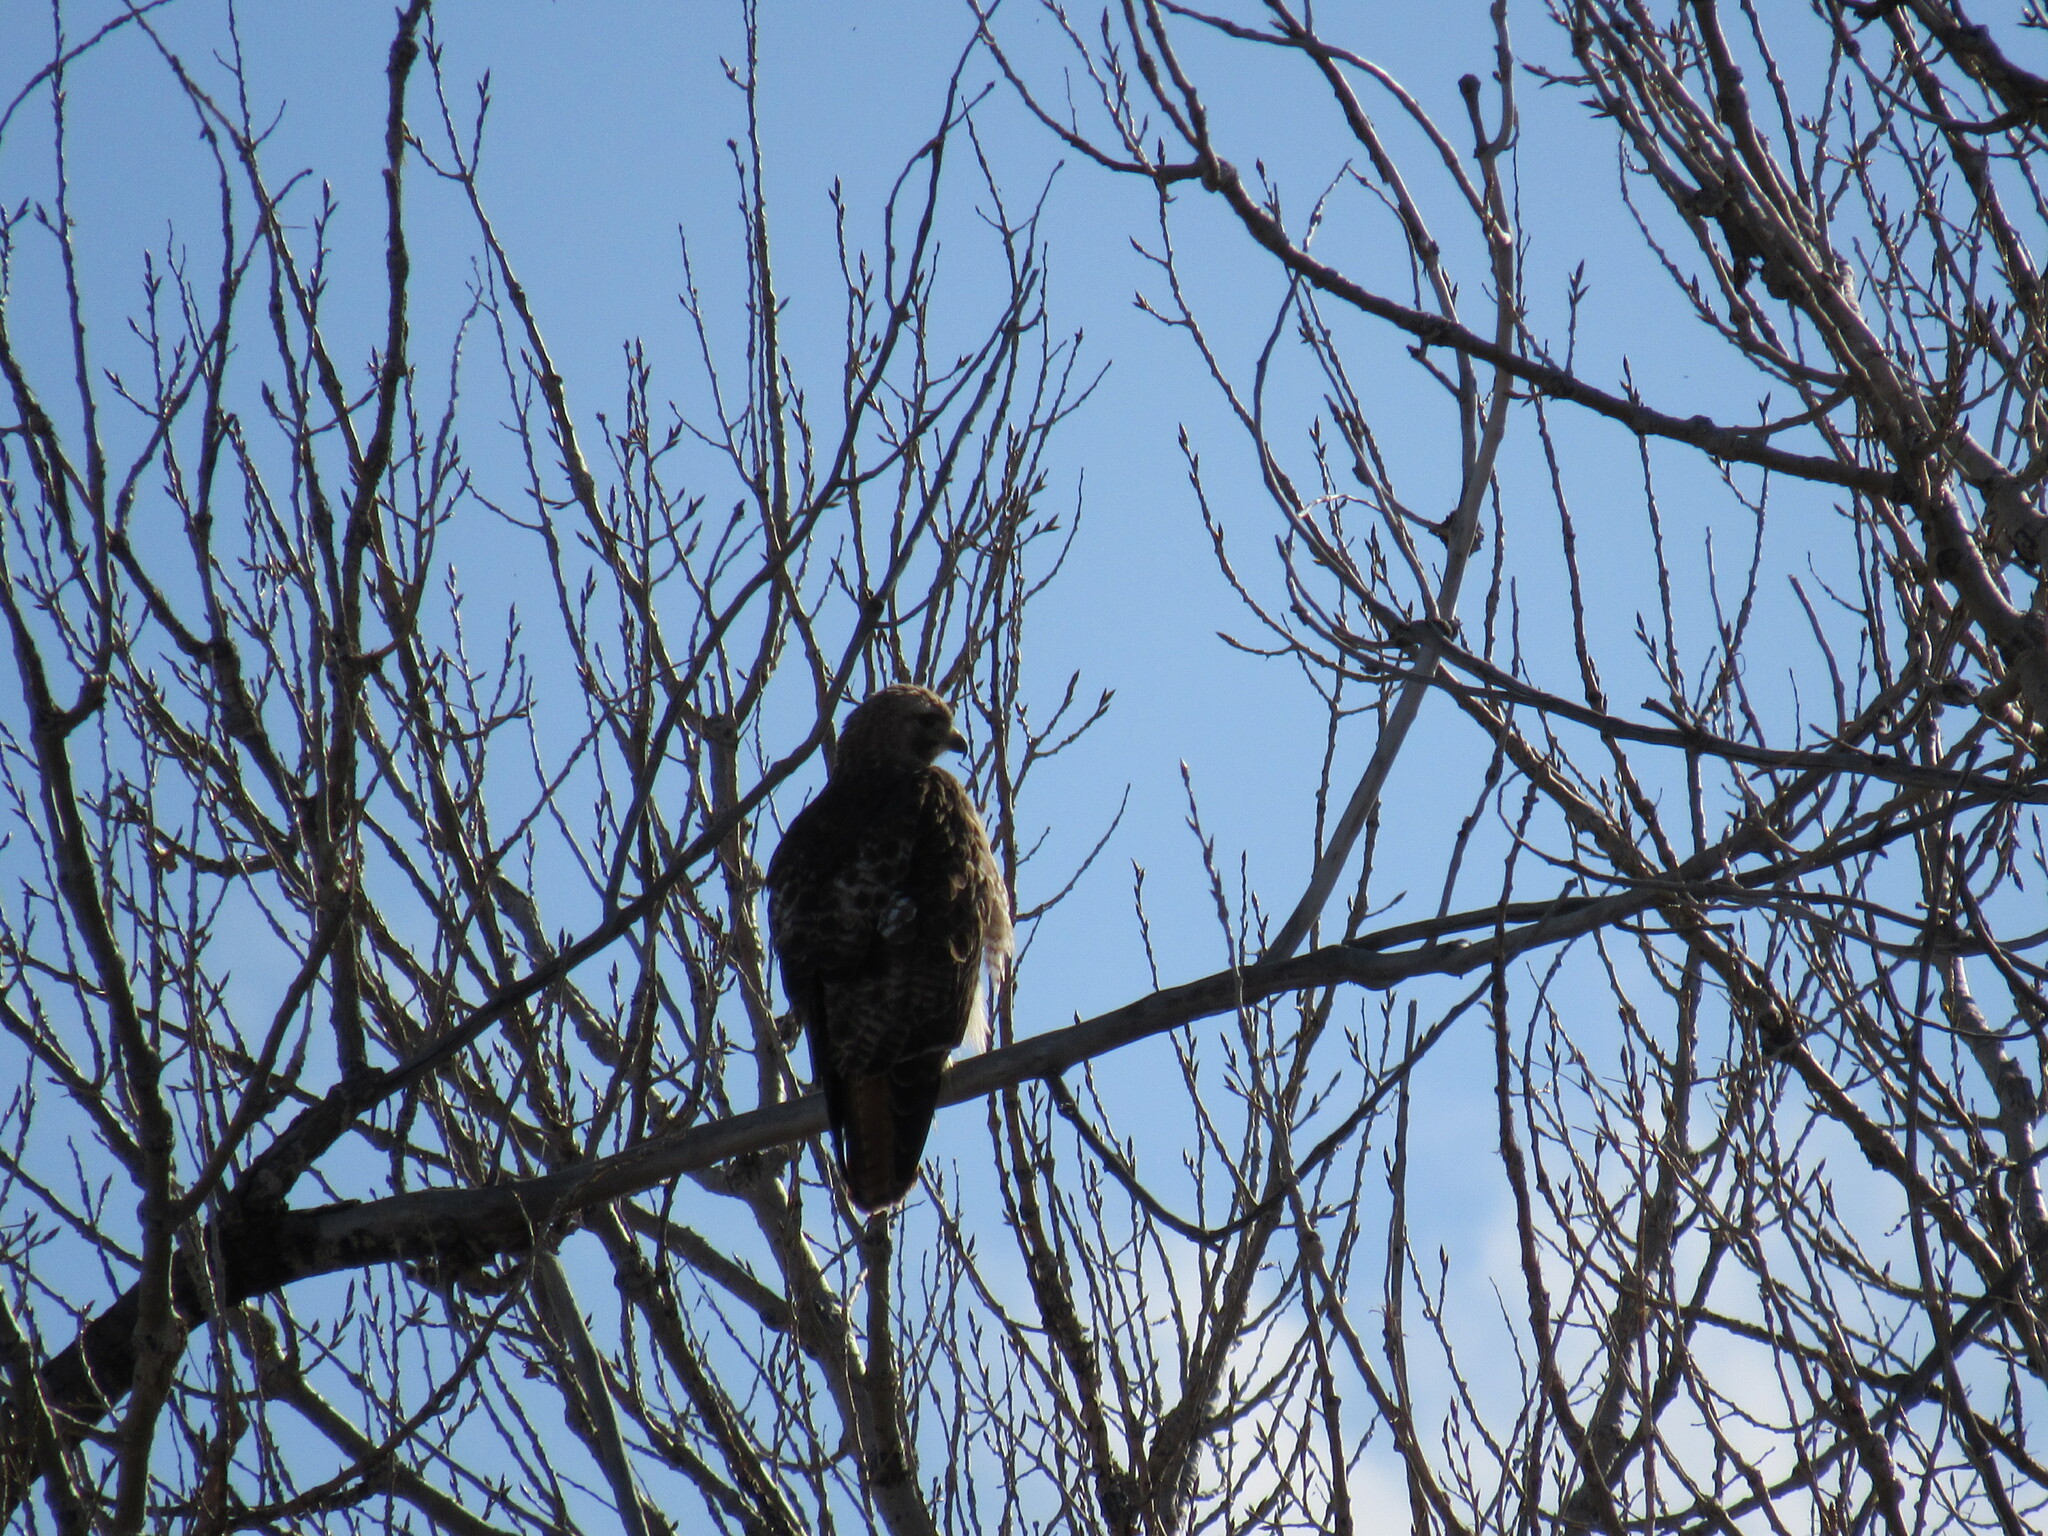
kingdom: Animalia
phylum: Chordata
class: Aves
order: Accipitriformes
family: Accipitridae
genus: Buteo
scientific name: Buteo jamaicensis
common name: Red-tailed hawk
